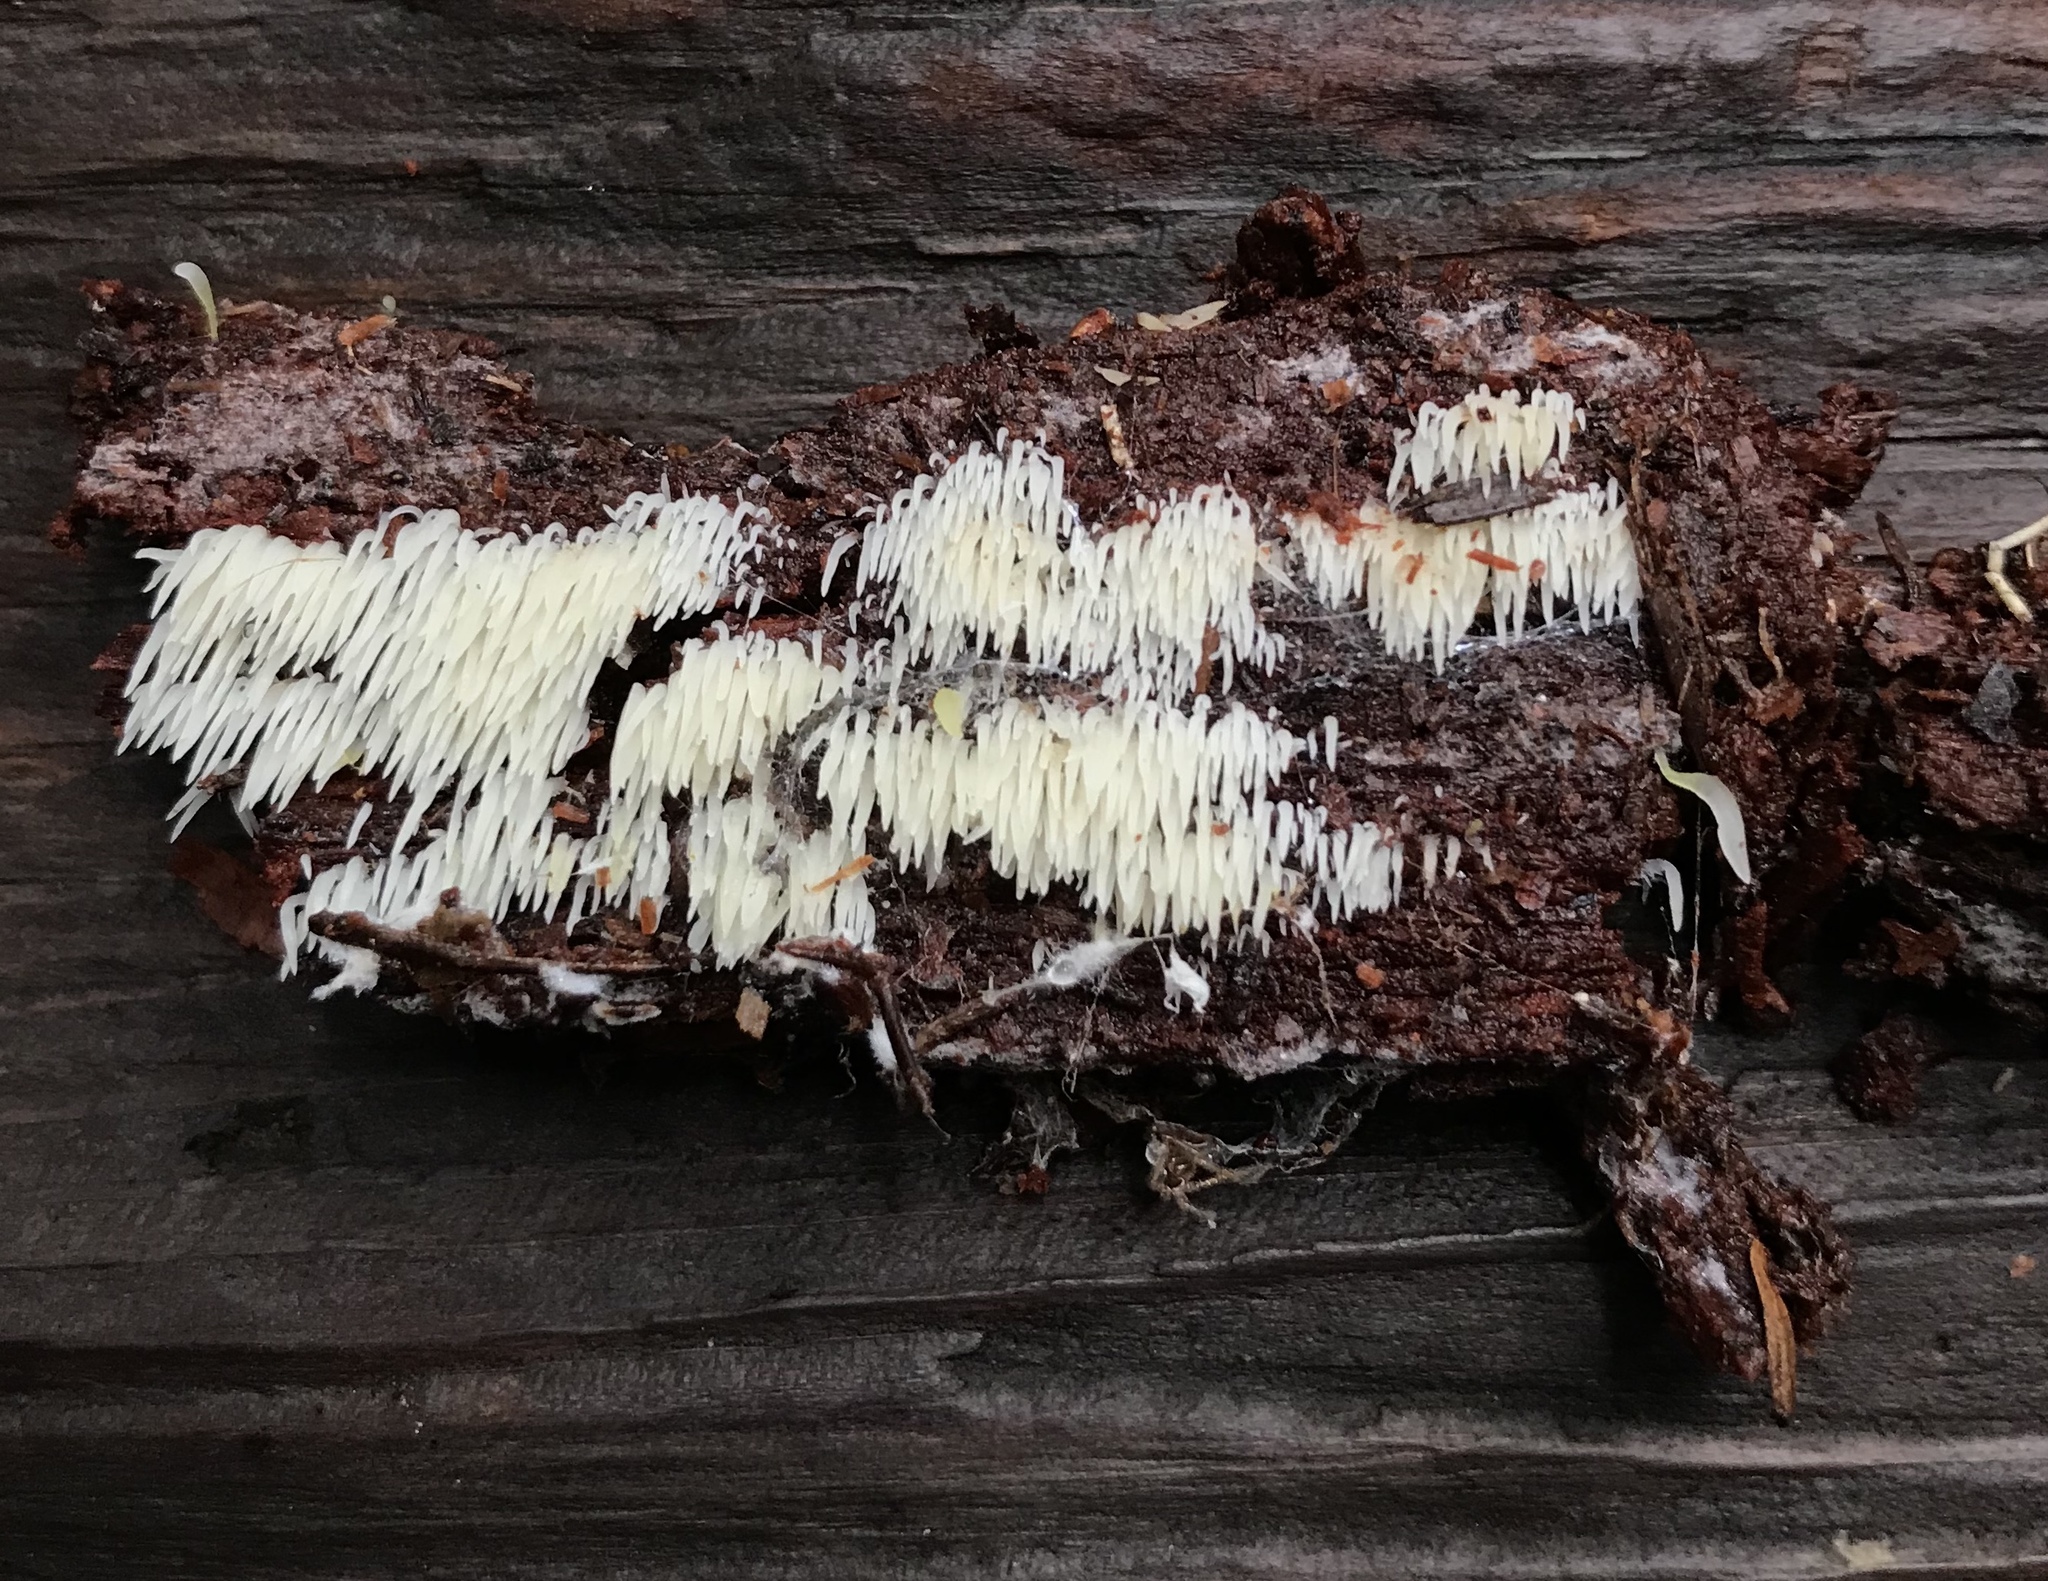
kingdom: Fungi
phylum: Basidiomycota
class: Agaricomycetes
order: Agaricales
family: Clavariaceae
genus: Mucronella
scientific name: Mucronella calva
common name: Swarming spine
